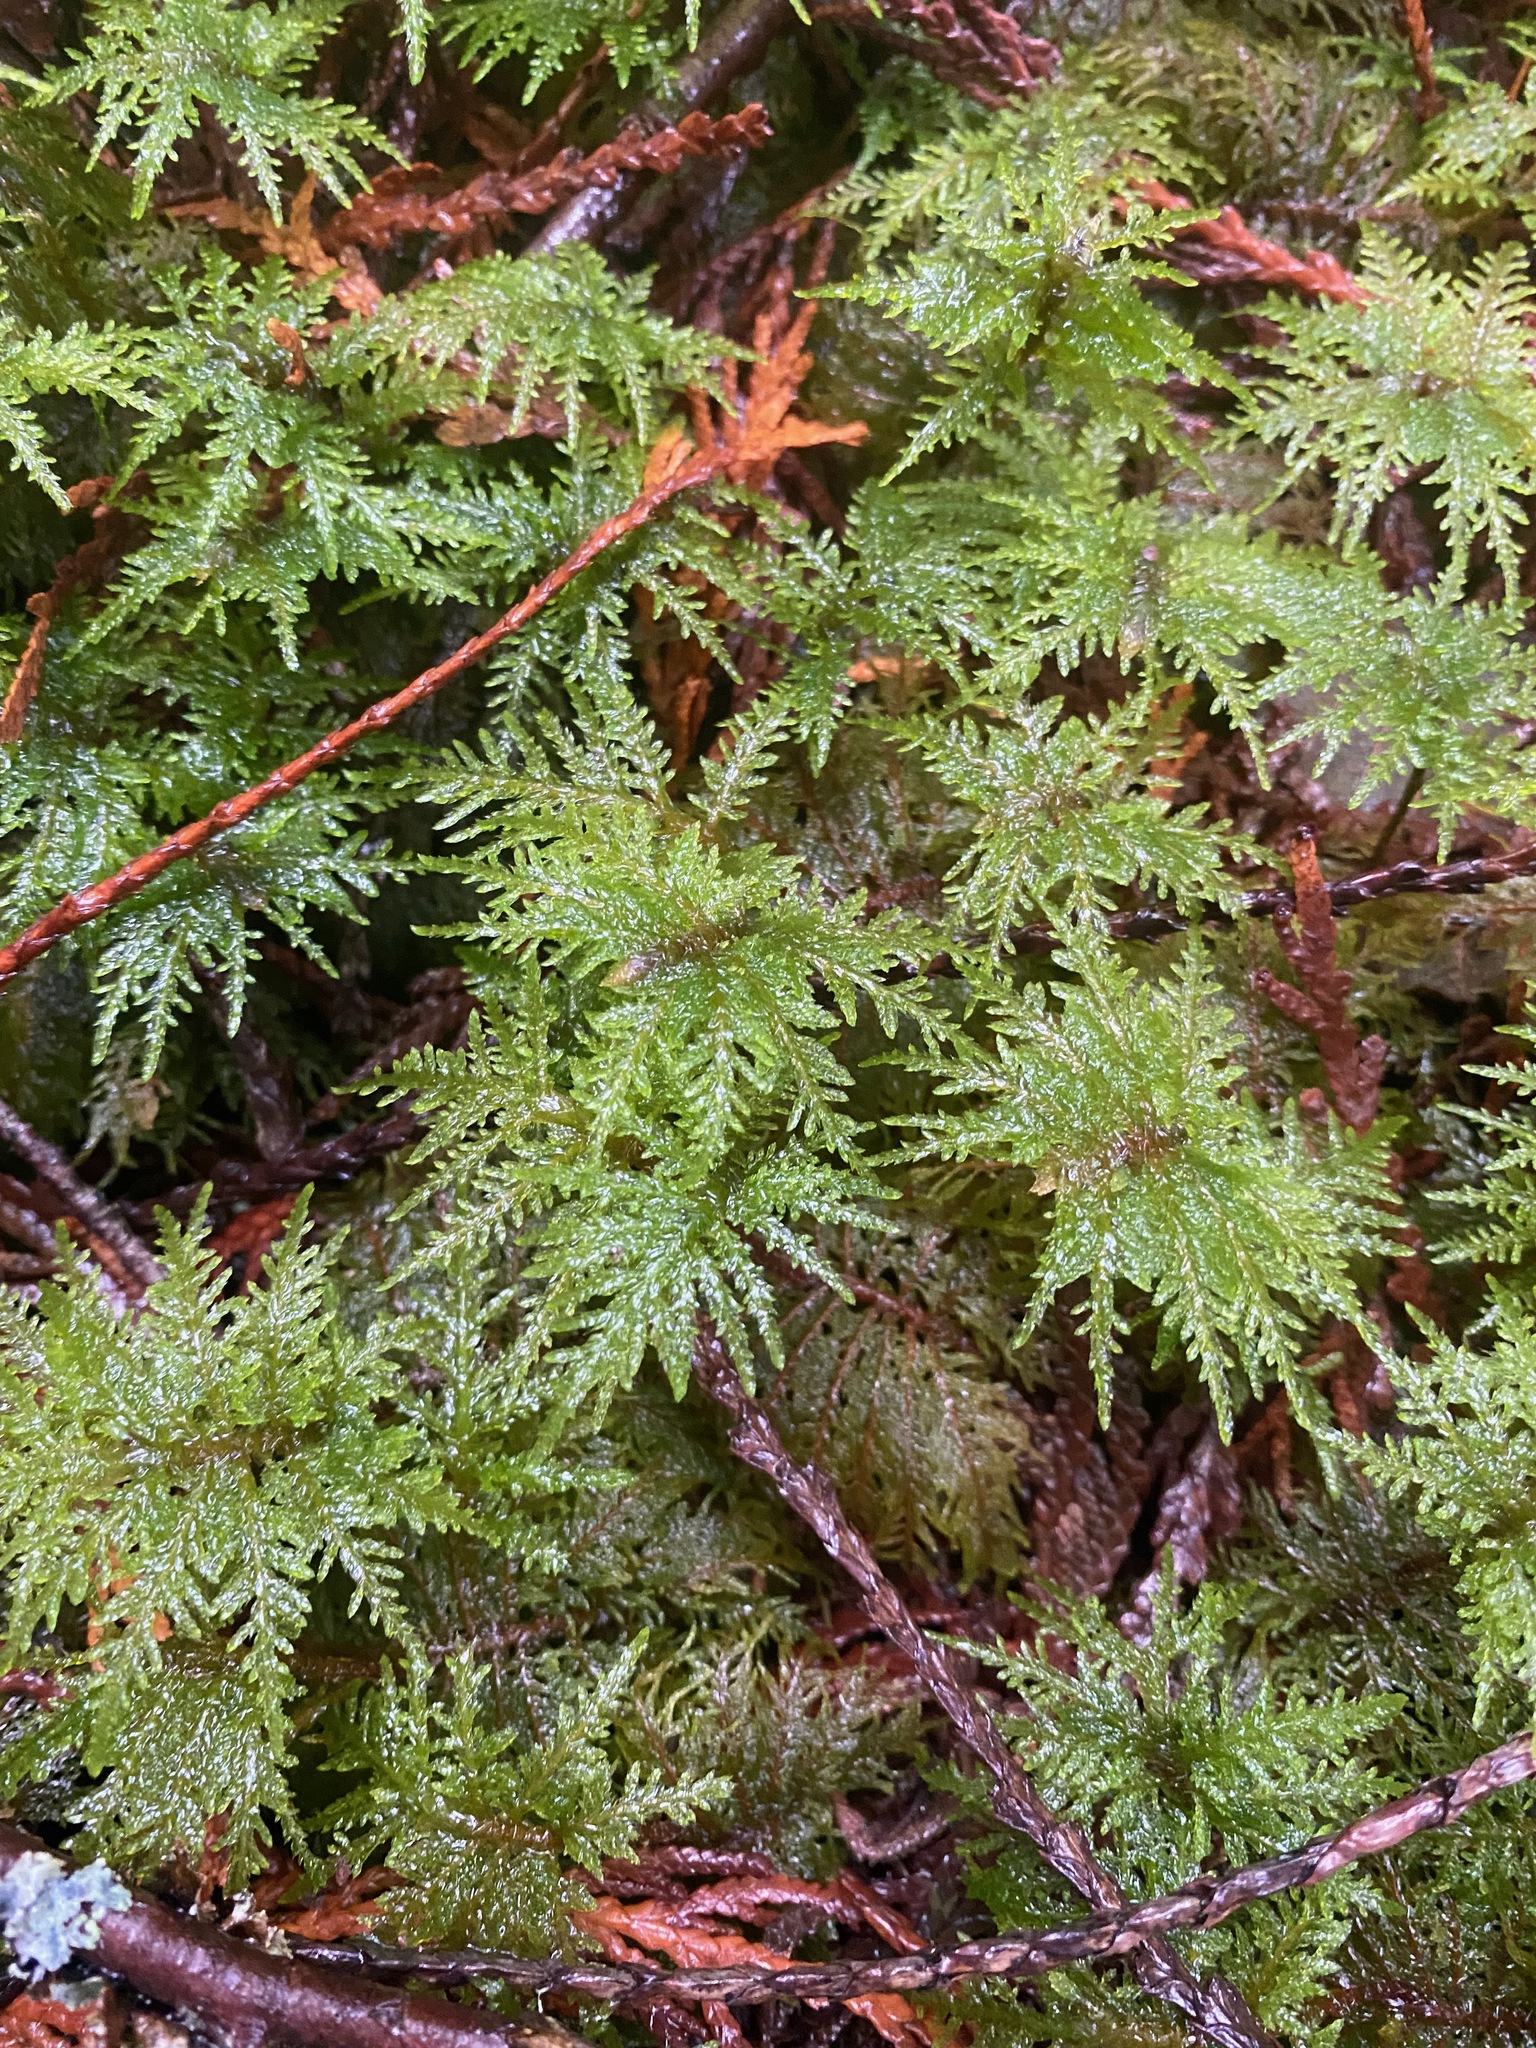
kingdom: Plantae
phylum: Bryophyta
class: Bryopsida
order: Hypnales
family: Hylocomiaceae
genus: Hylocomium
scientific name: Hylocomium splendens
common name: Stairstep moss
